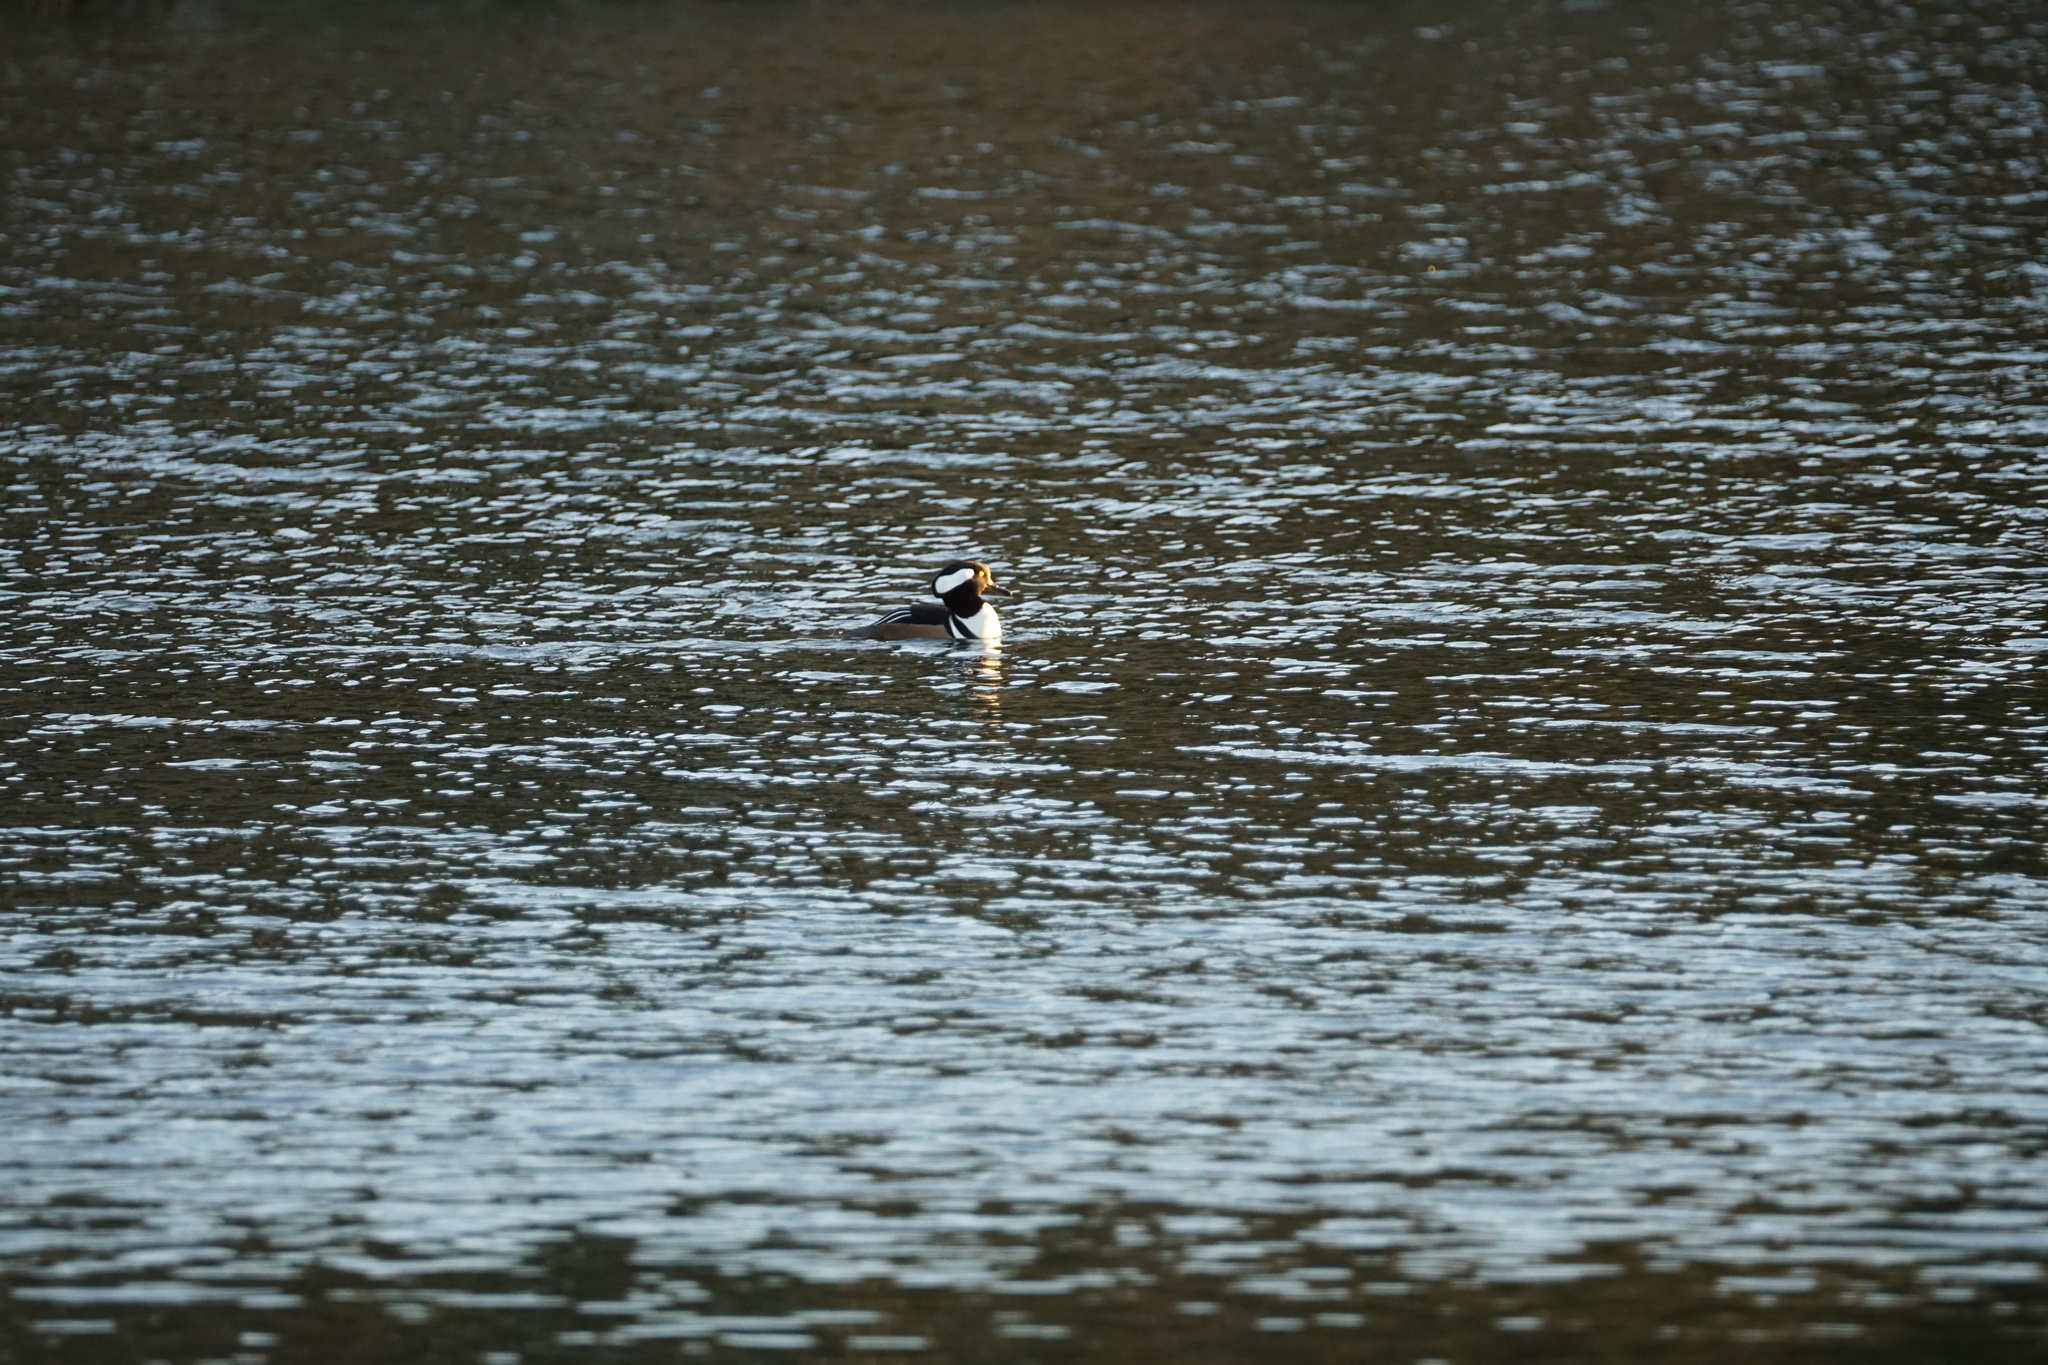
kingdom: Animalia
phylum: Chordata
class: Aves
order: Anseriformes
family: Anatidae
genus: Lophodytes
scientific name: Lophodytes cucullatus
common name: Hooded merganser
